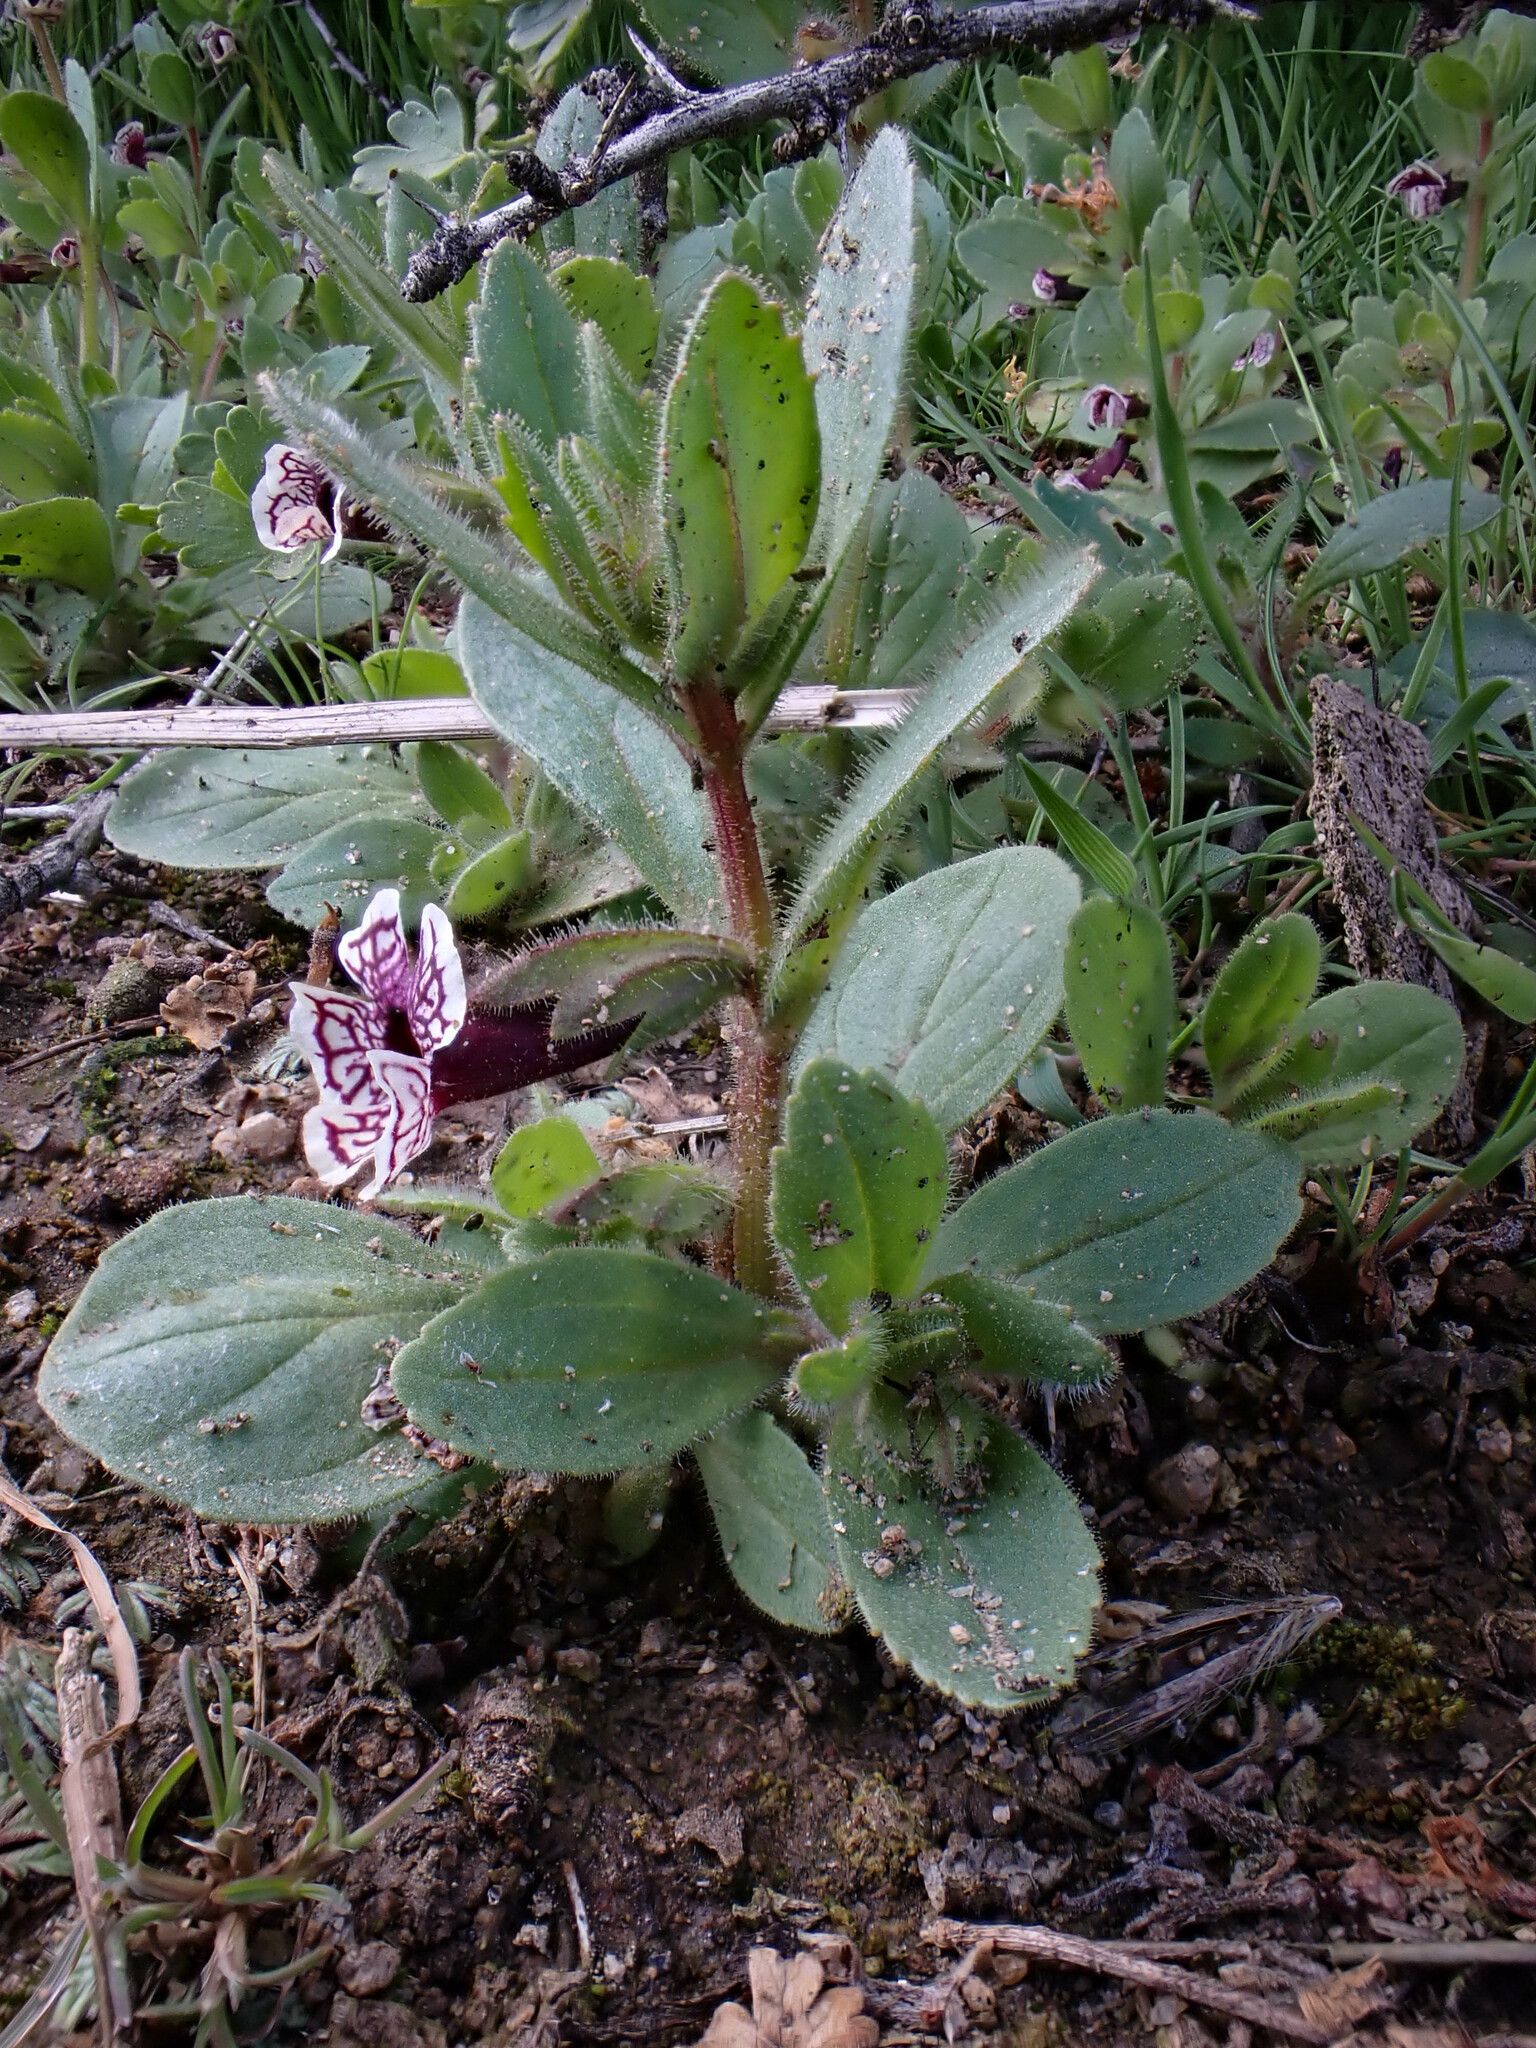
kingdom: Plantae
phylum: Tracheophyta
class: Magnoliopsida
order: Lamiales
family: Phrymaceae
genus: Diplacus
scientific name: Diplacus pictus
